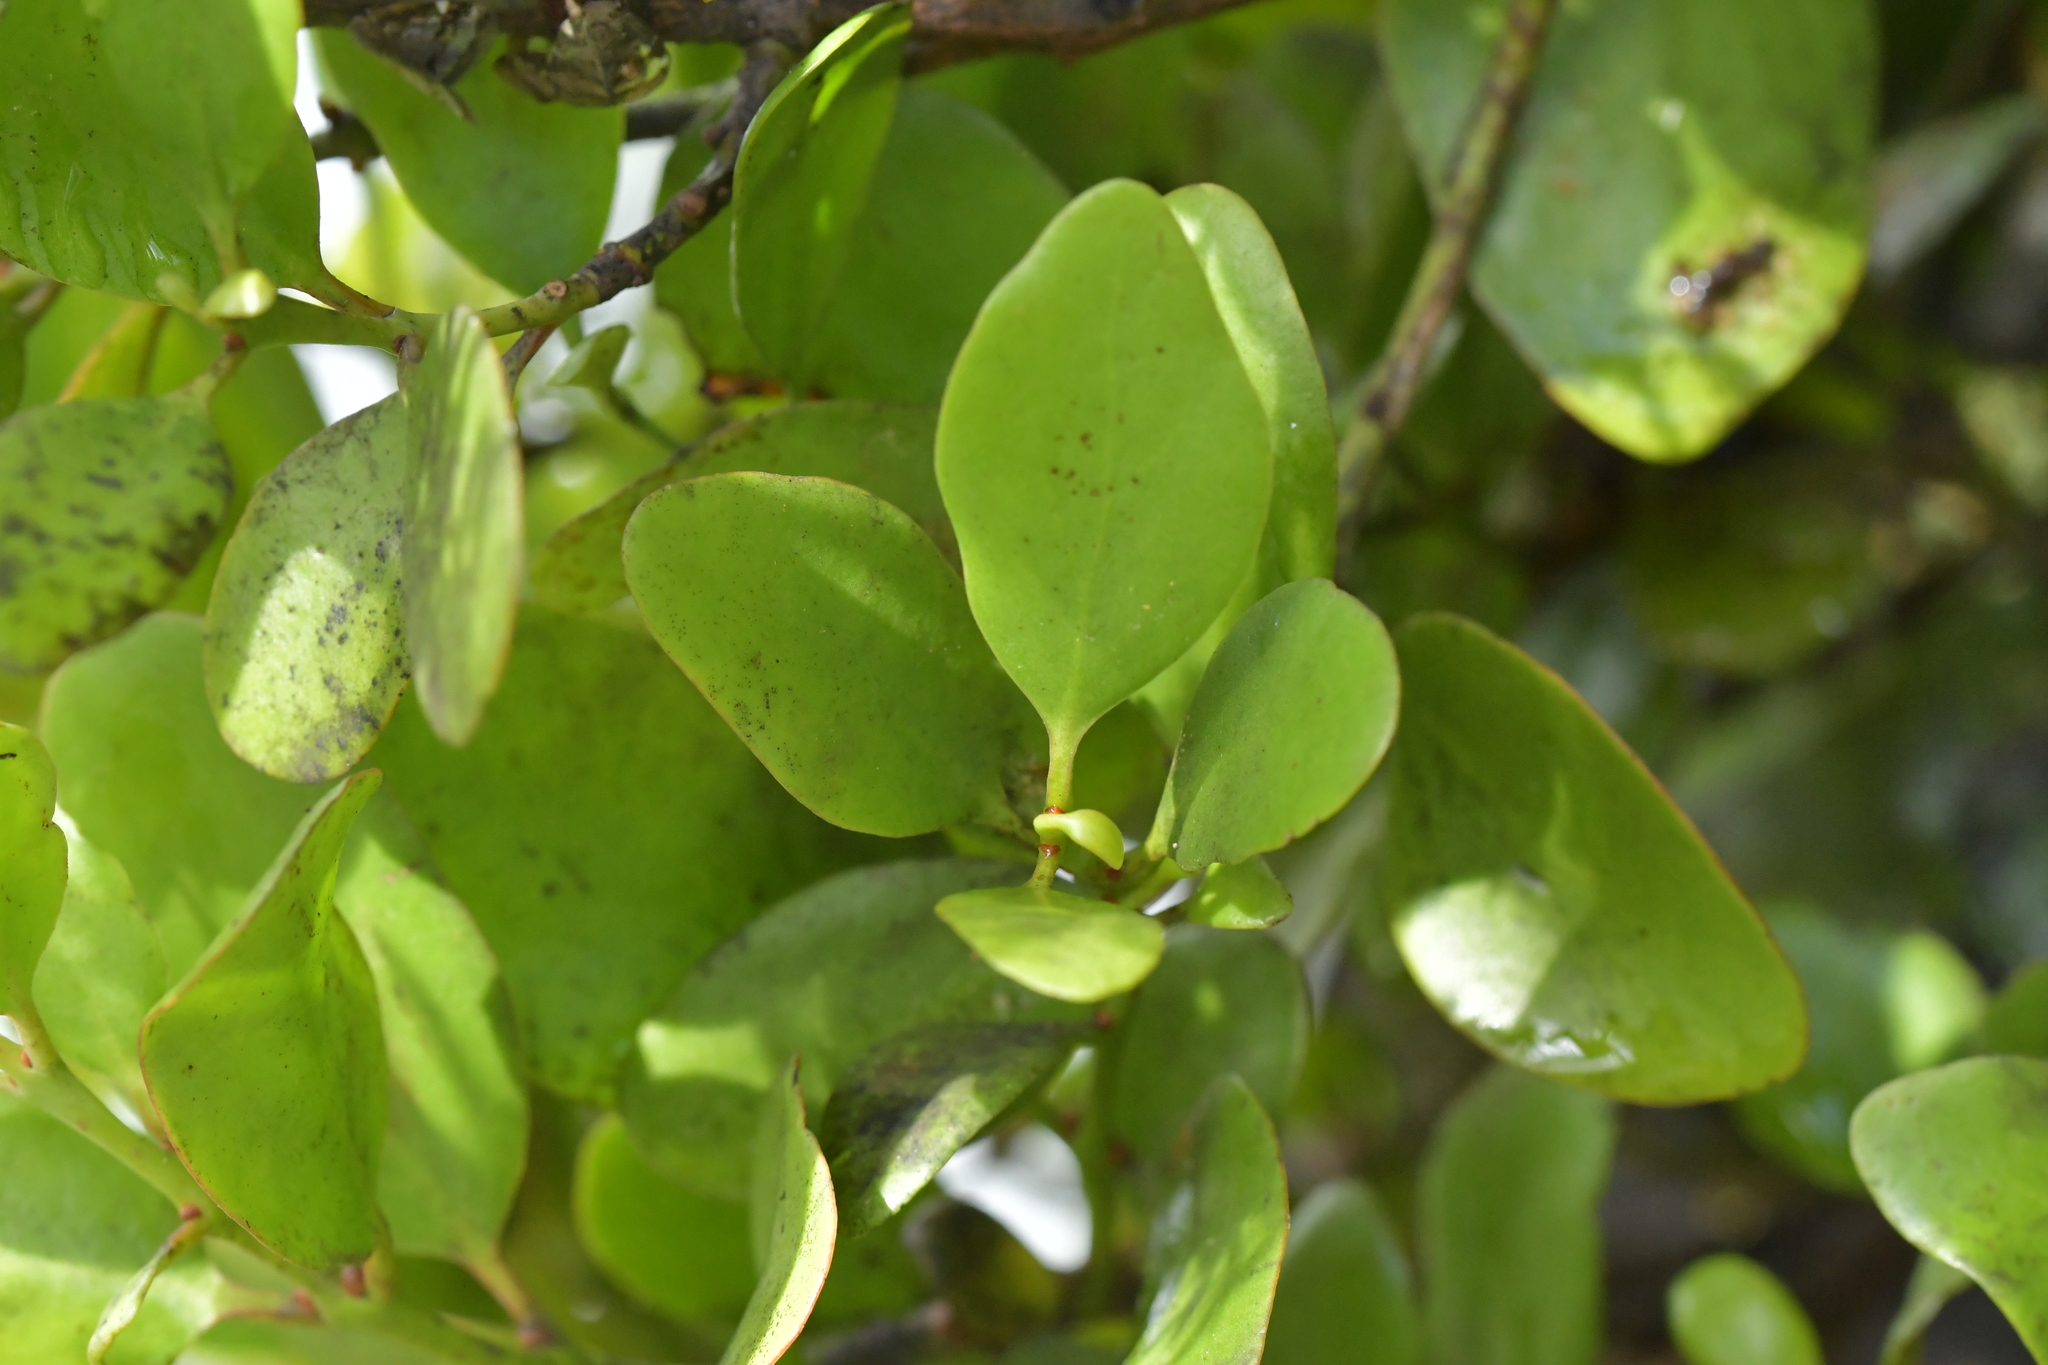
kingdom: Plantae
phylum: Tracheophyta
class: Magnoliopsida
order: Santalales
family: Loranthaceae
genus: Ileostylus
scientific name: Ileostylus micranthus
